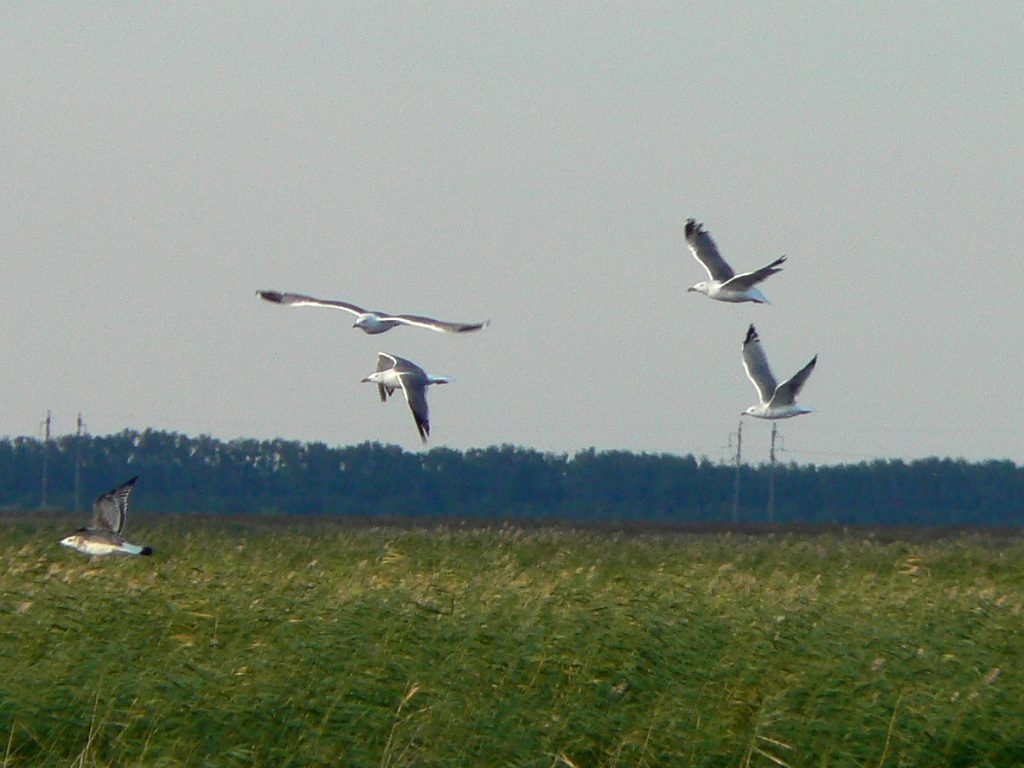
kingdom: Animalia
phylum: Chordata
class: Aves
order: Charadriiformes
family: Laridae
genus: Larus
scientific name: Larus fuscus
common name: Lesser black-backed gull
